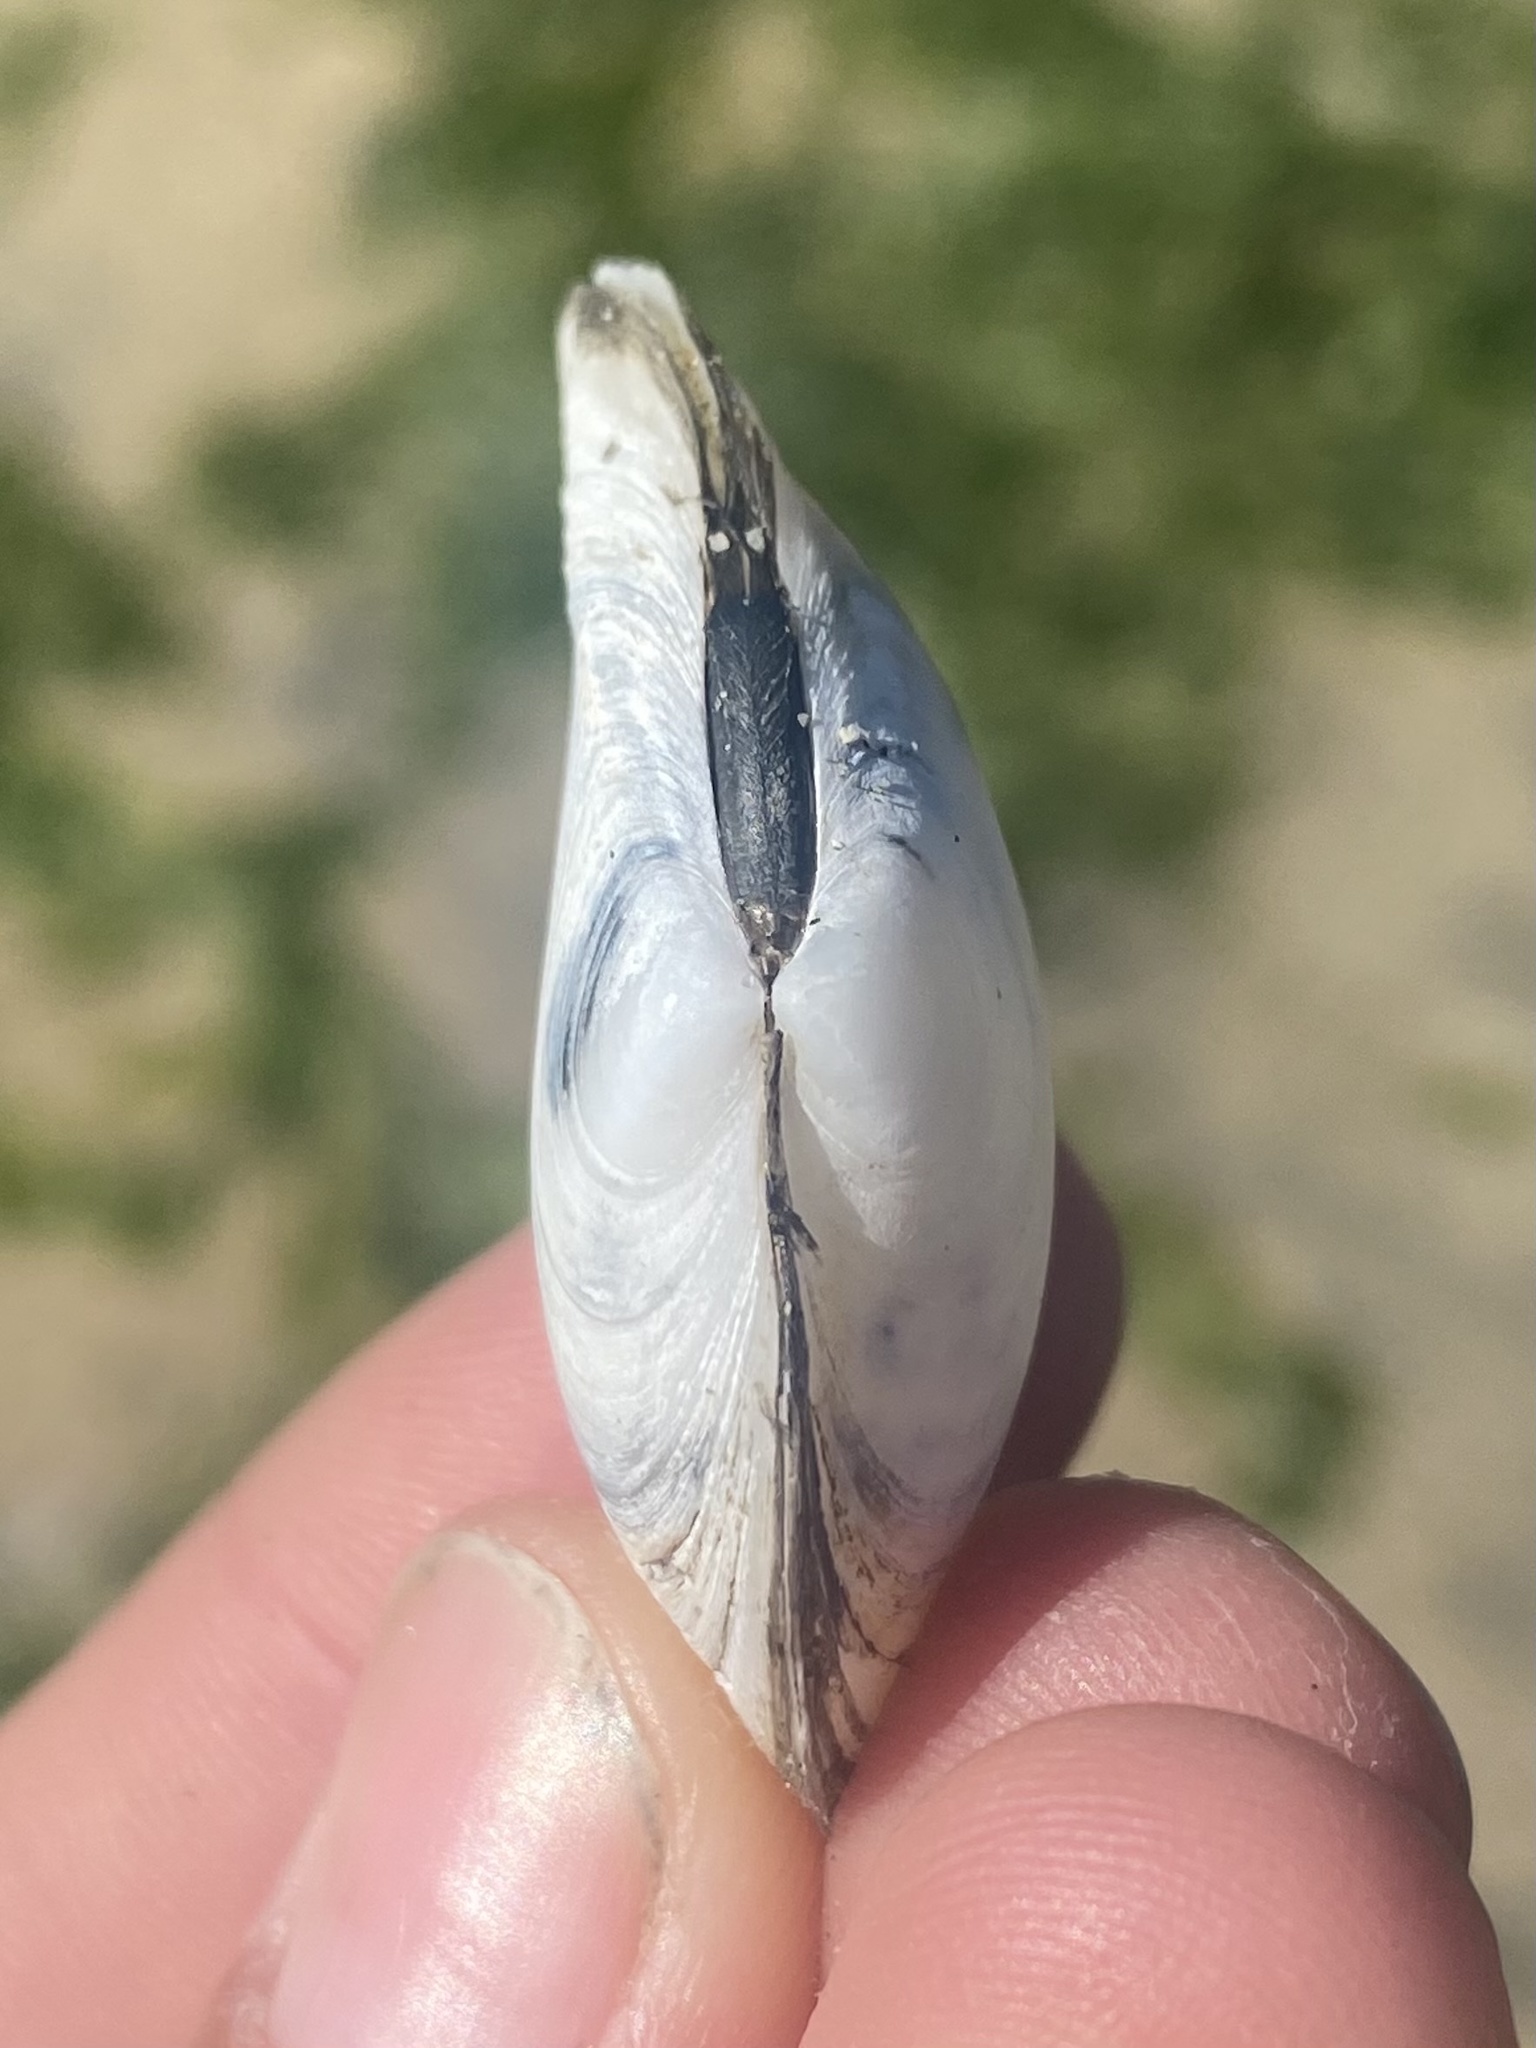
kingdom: Animalia
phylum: Mollusca
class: Bivalvia
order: Cardiida
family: Tellinidae
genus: Macoma
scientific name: Macoma nasuta
